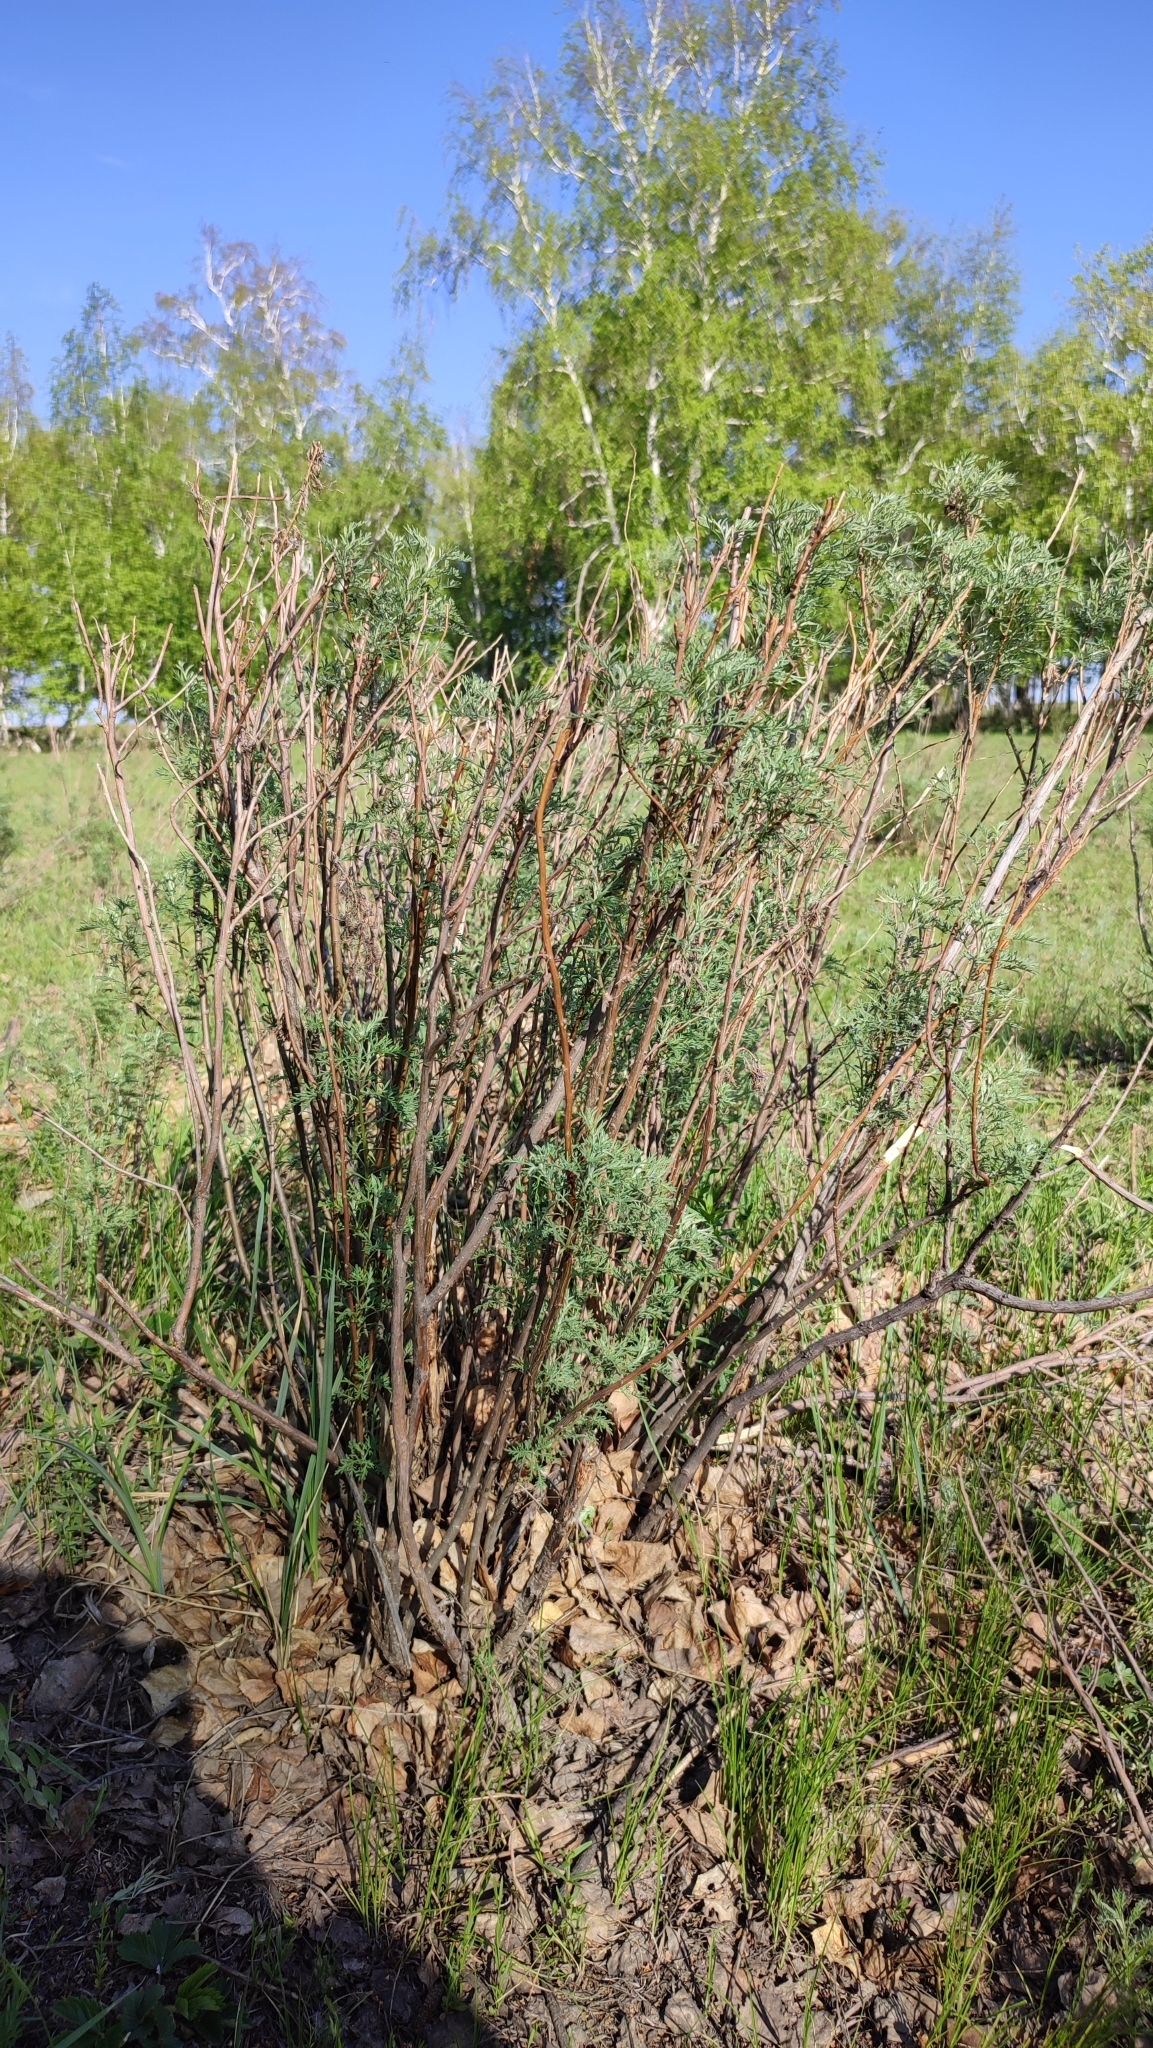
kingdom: Plantae
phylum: Tracheophyta
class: Magnoliopsida
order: Asterales
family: Asteraceae
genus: Artemisia
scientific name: Artemisia abrotanum
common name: Southernwood
